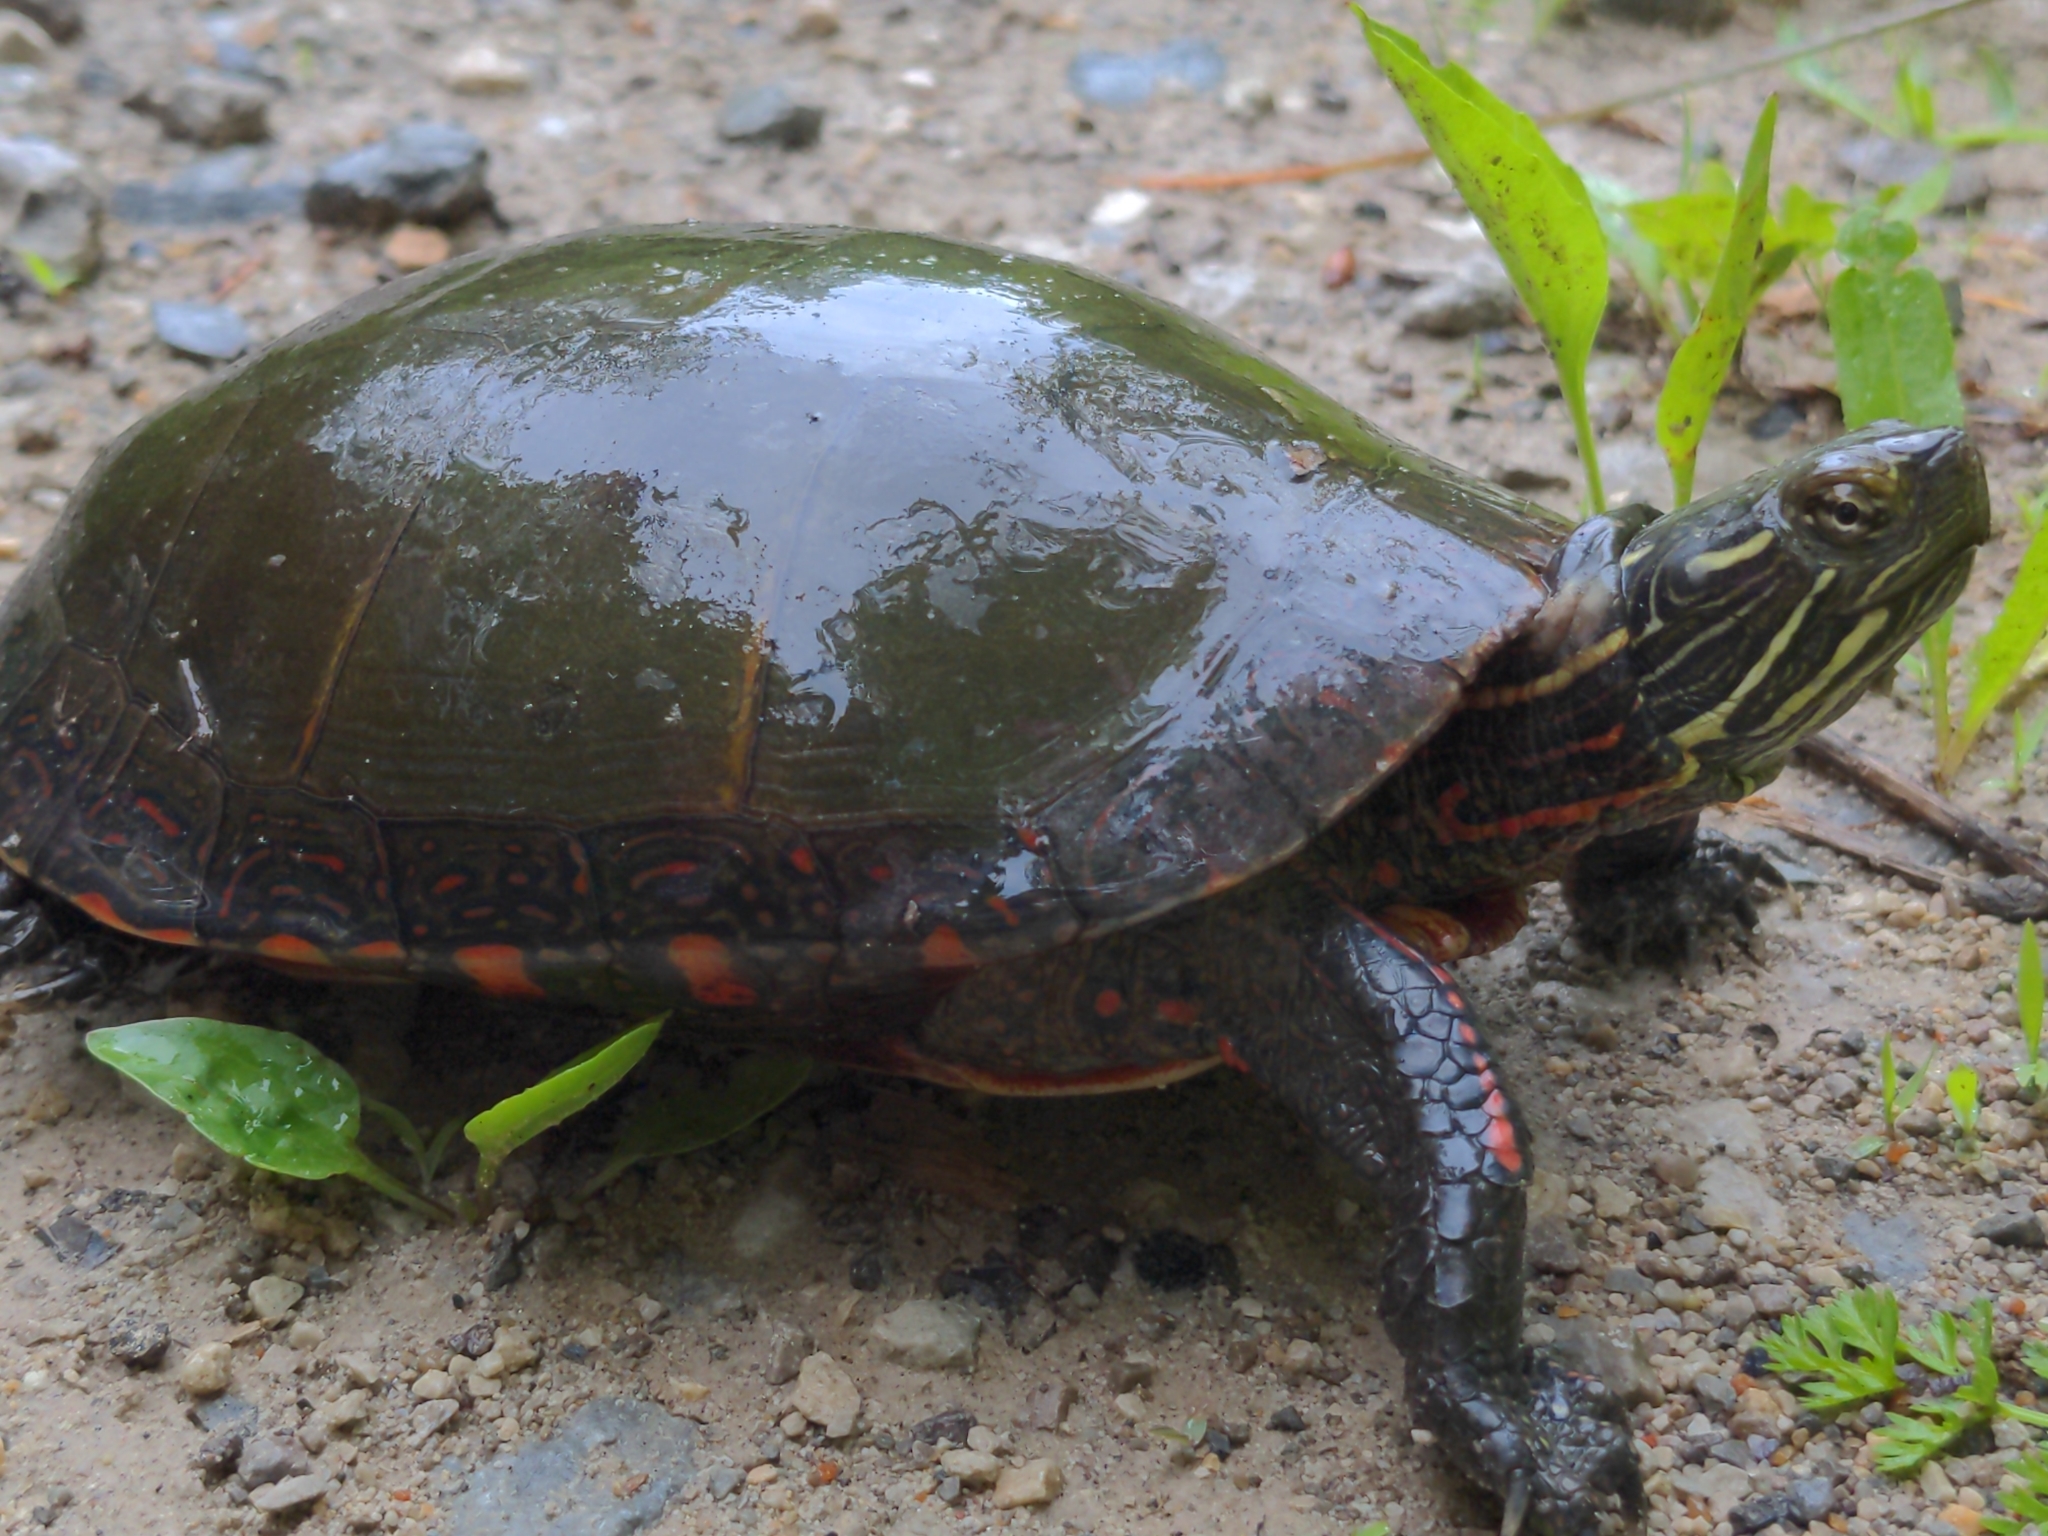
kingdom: Animalia
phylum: Chordata
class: Testudines
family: Emydidae
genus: Chrysemys
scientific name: Chrysemys picta
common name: Painted turtle
